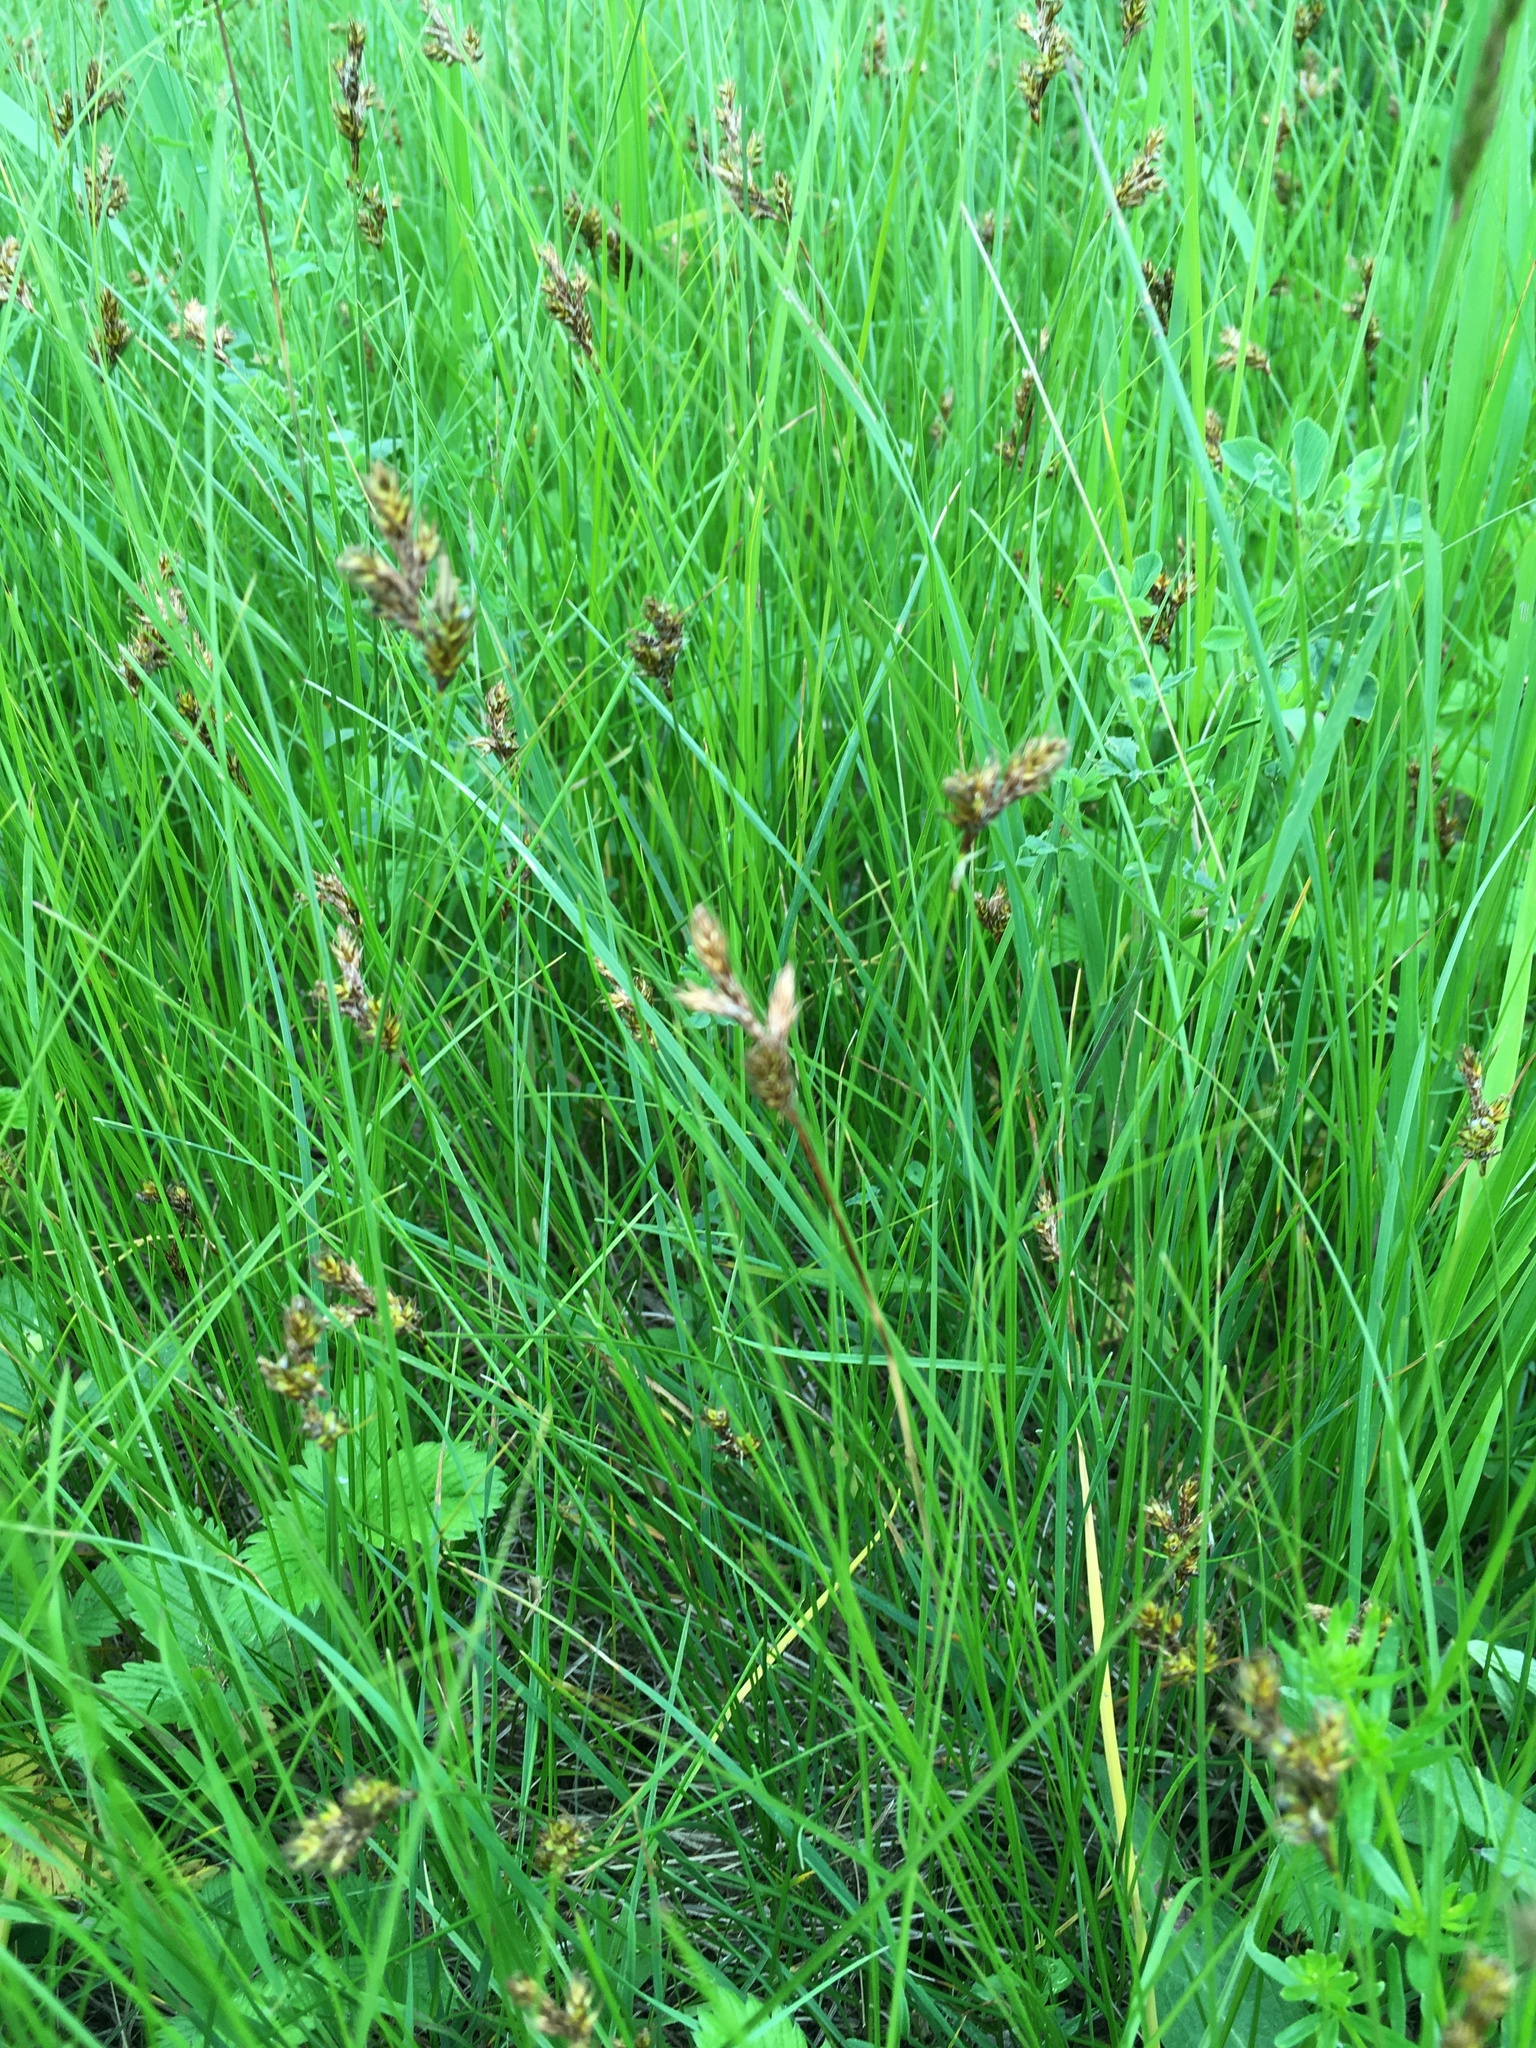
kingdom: Plantae
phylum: Tracheophyta
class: Liliopsida
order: Poales
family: Cyperaceae
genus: Carex
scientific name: Carex praecox
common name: Early sedge
